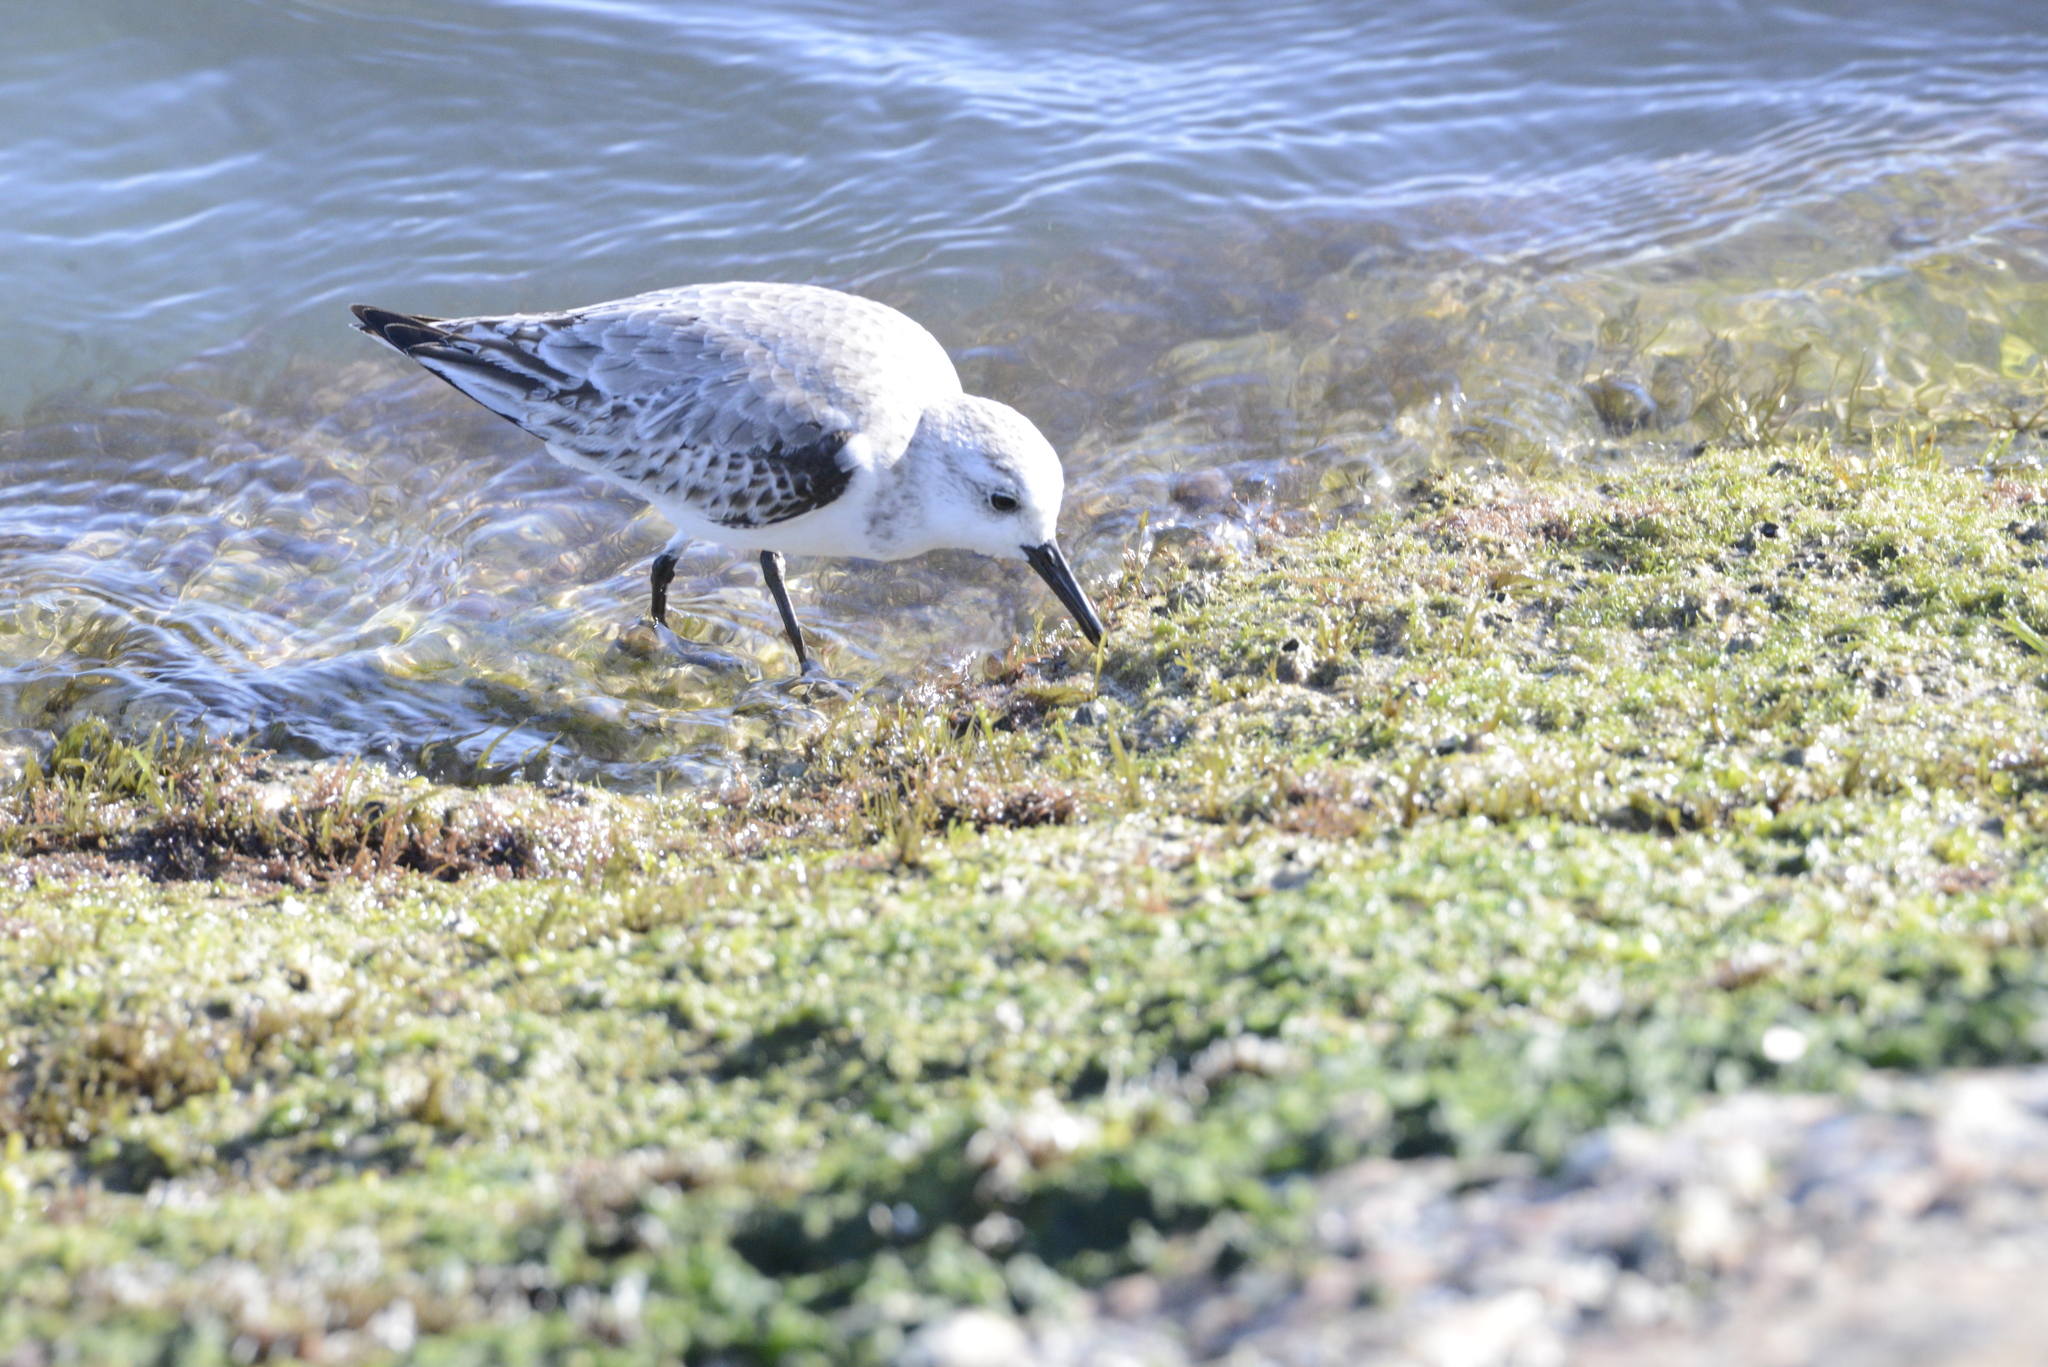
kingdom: Animalia
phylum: Chordata
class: Aves
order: Charadriiformes
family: Scolopacidae
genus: Calidris
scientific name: Calidris alba
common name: Sanderling
